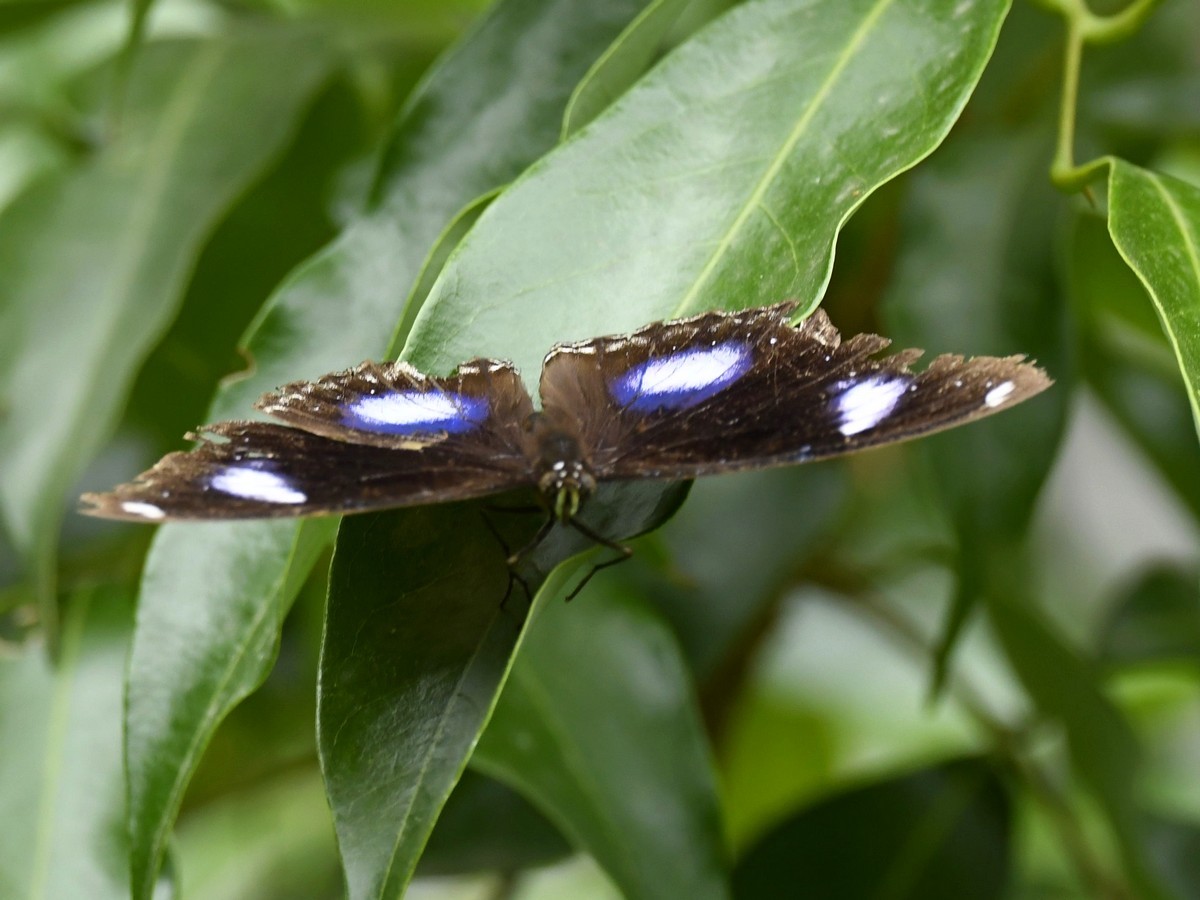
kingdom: Animalia
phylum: Arthropoda
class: Insecta
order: Lepidoptera
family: Nymphalidae
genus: Hypolimnas
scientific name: Hypolimnas bolina
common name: Great eggfly
